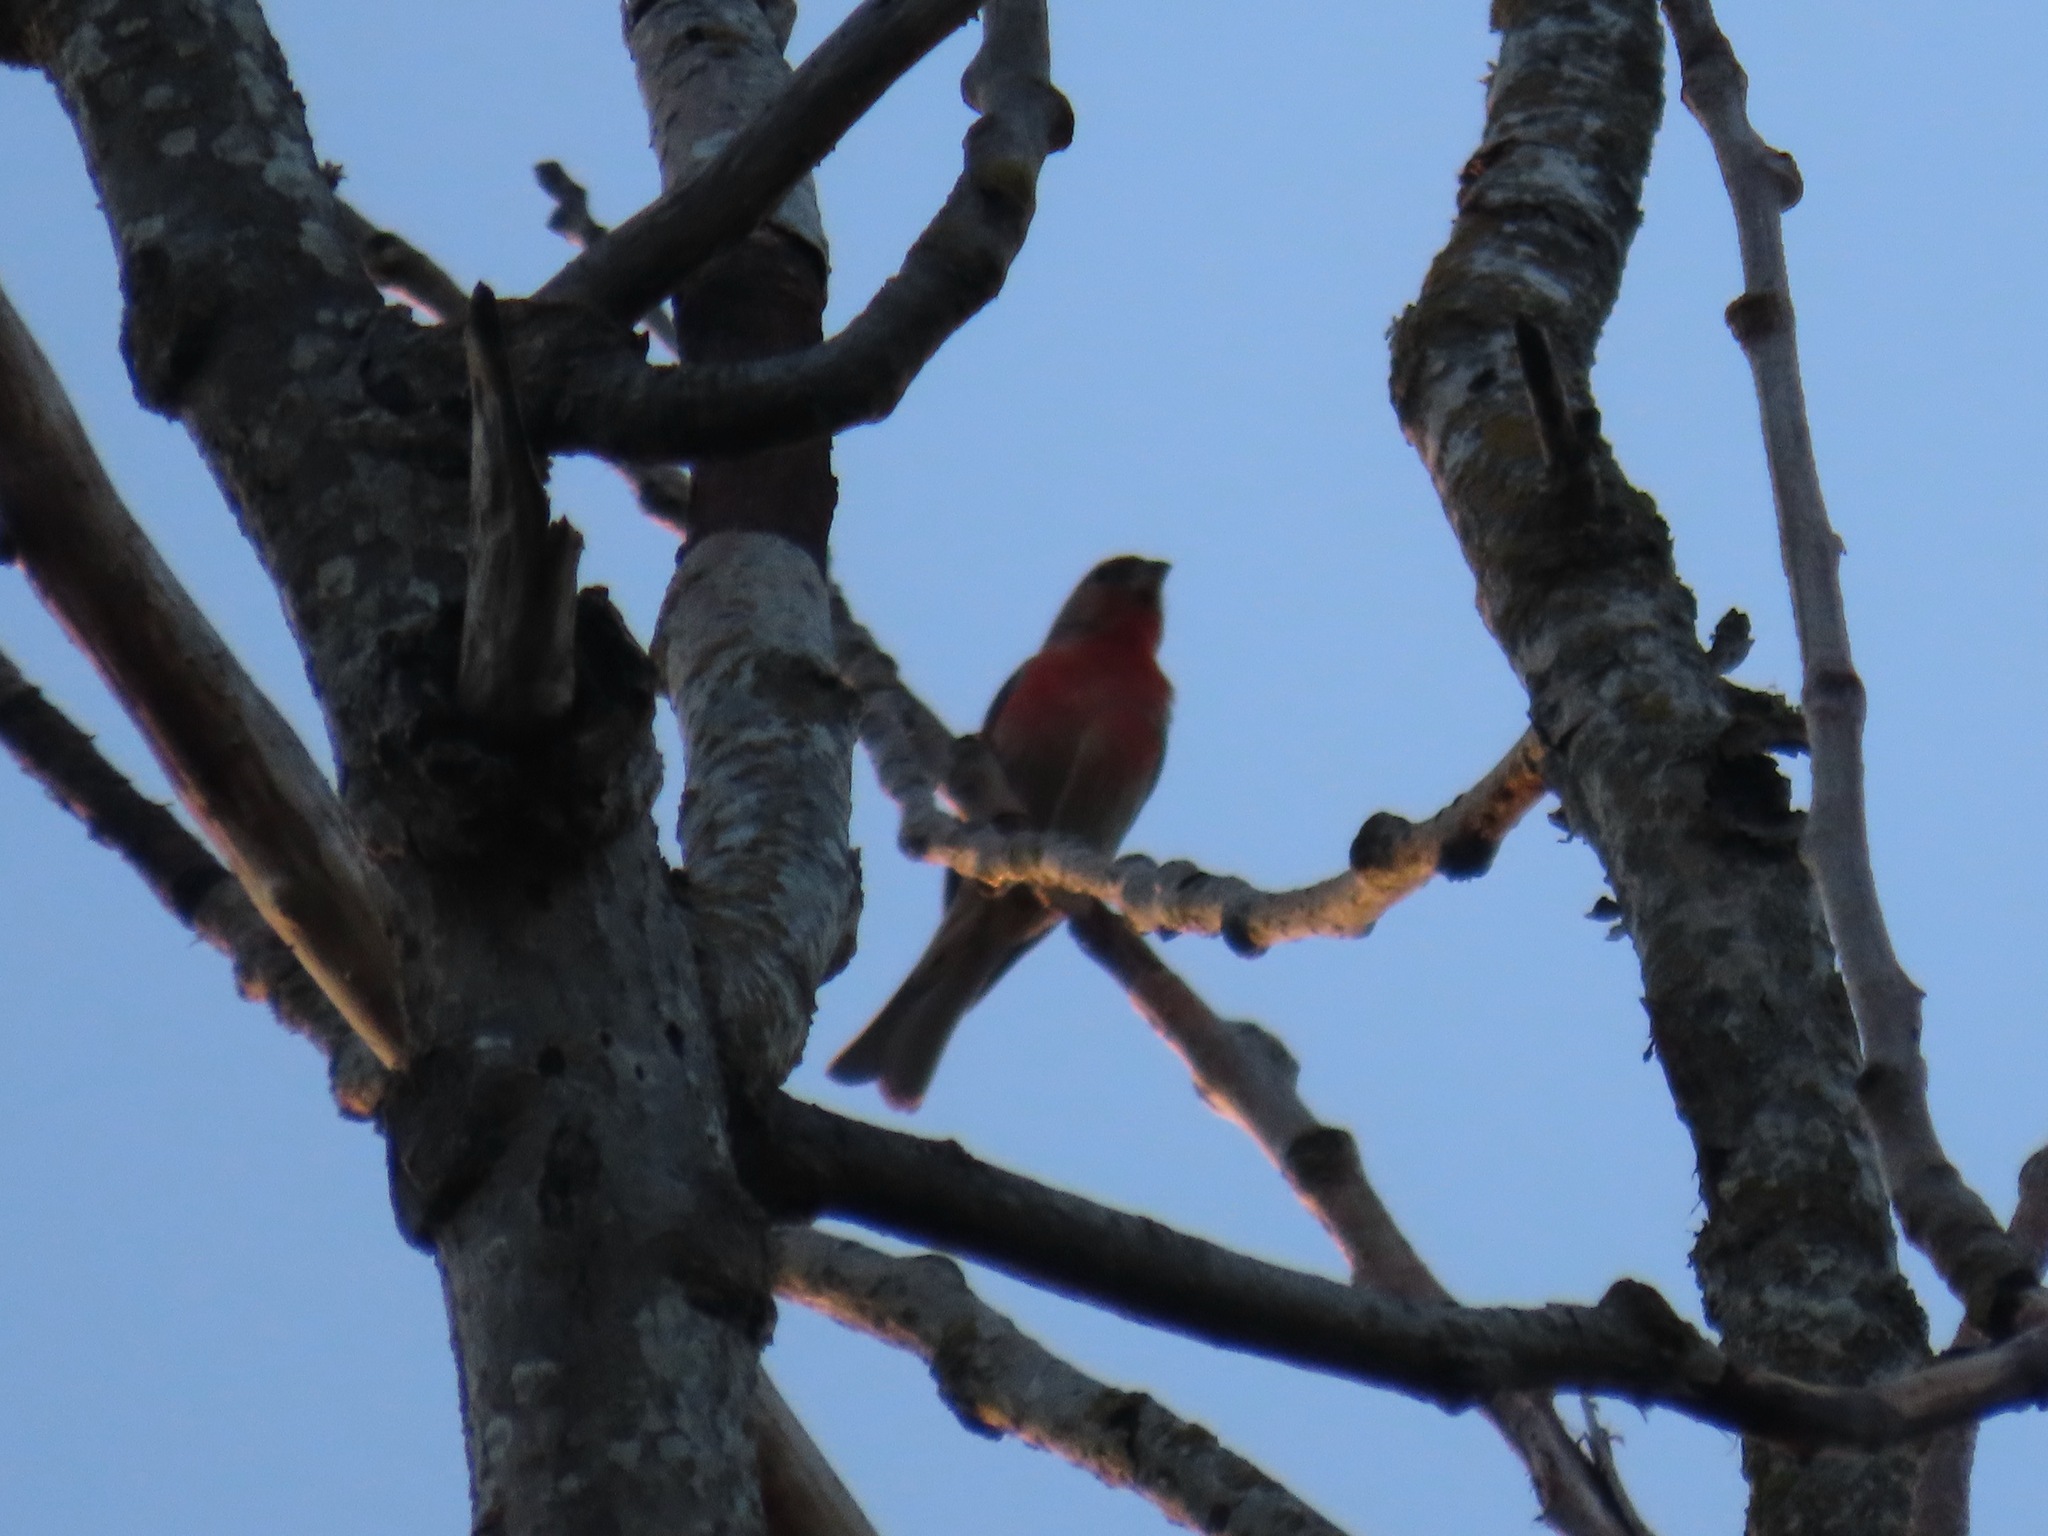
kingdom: Animalia
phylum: Chordata
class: Aves
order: Passeriformes
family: Fringillidae
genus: Haemorhous
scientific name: Haemorhous mexicanus
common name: House finch
